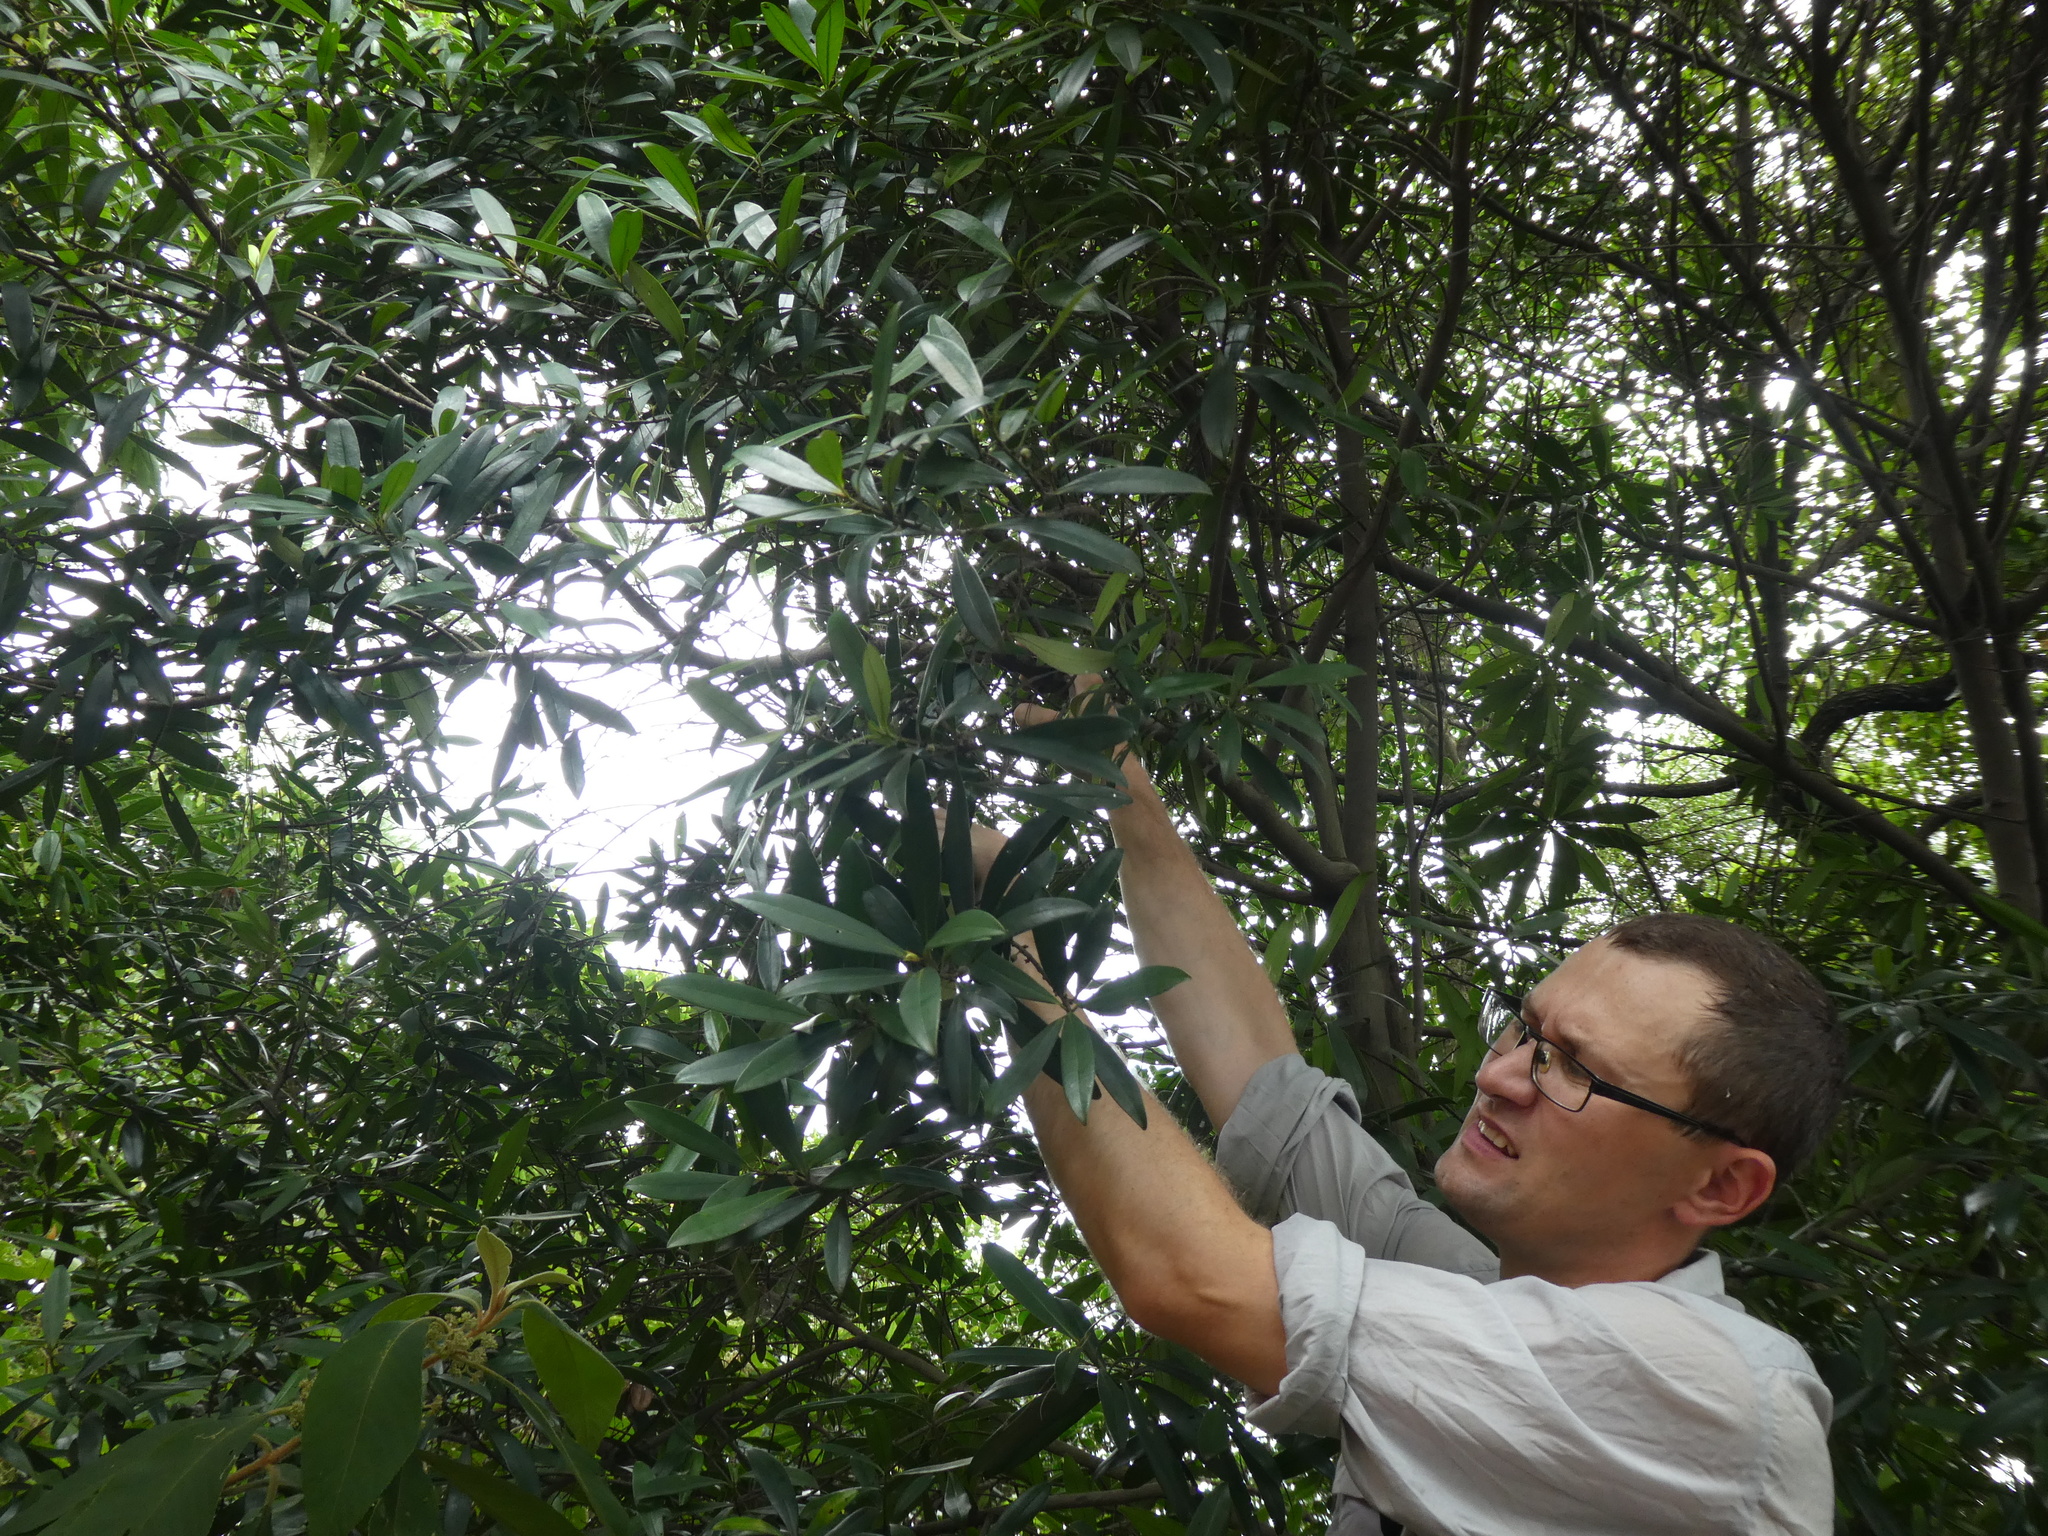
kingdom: Plantae
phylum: Tracheophyta
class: Magnoliopsida
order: Ericales
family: Primulaceae
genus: Myrsine
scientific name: Myrsine seguinii
